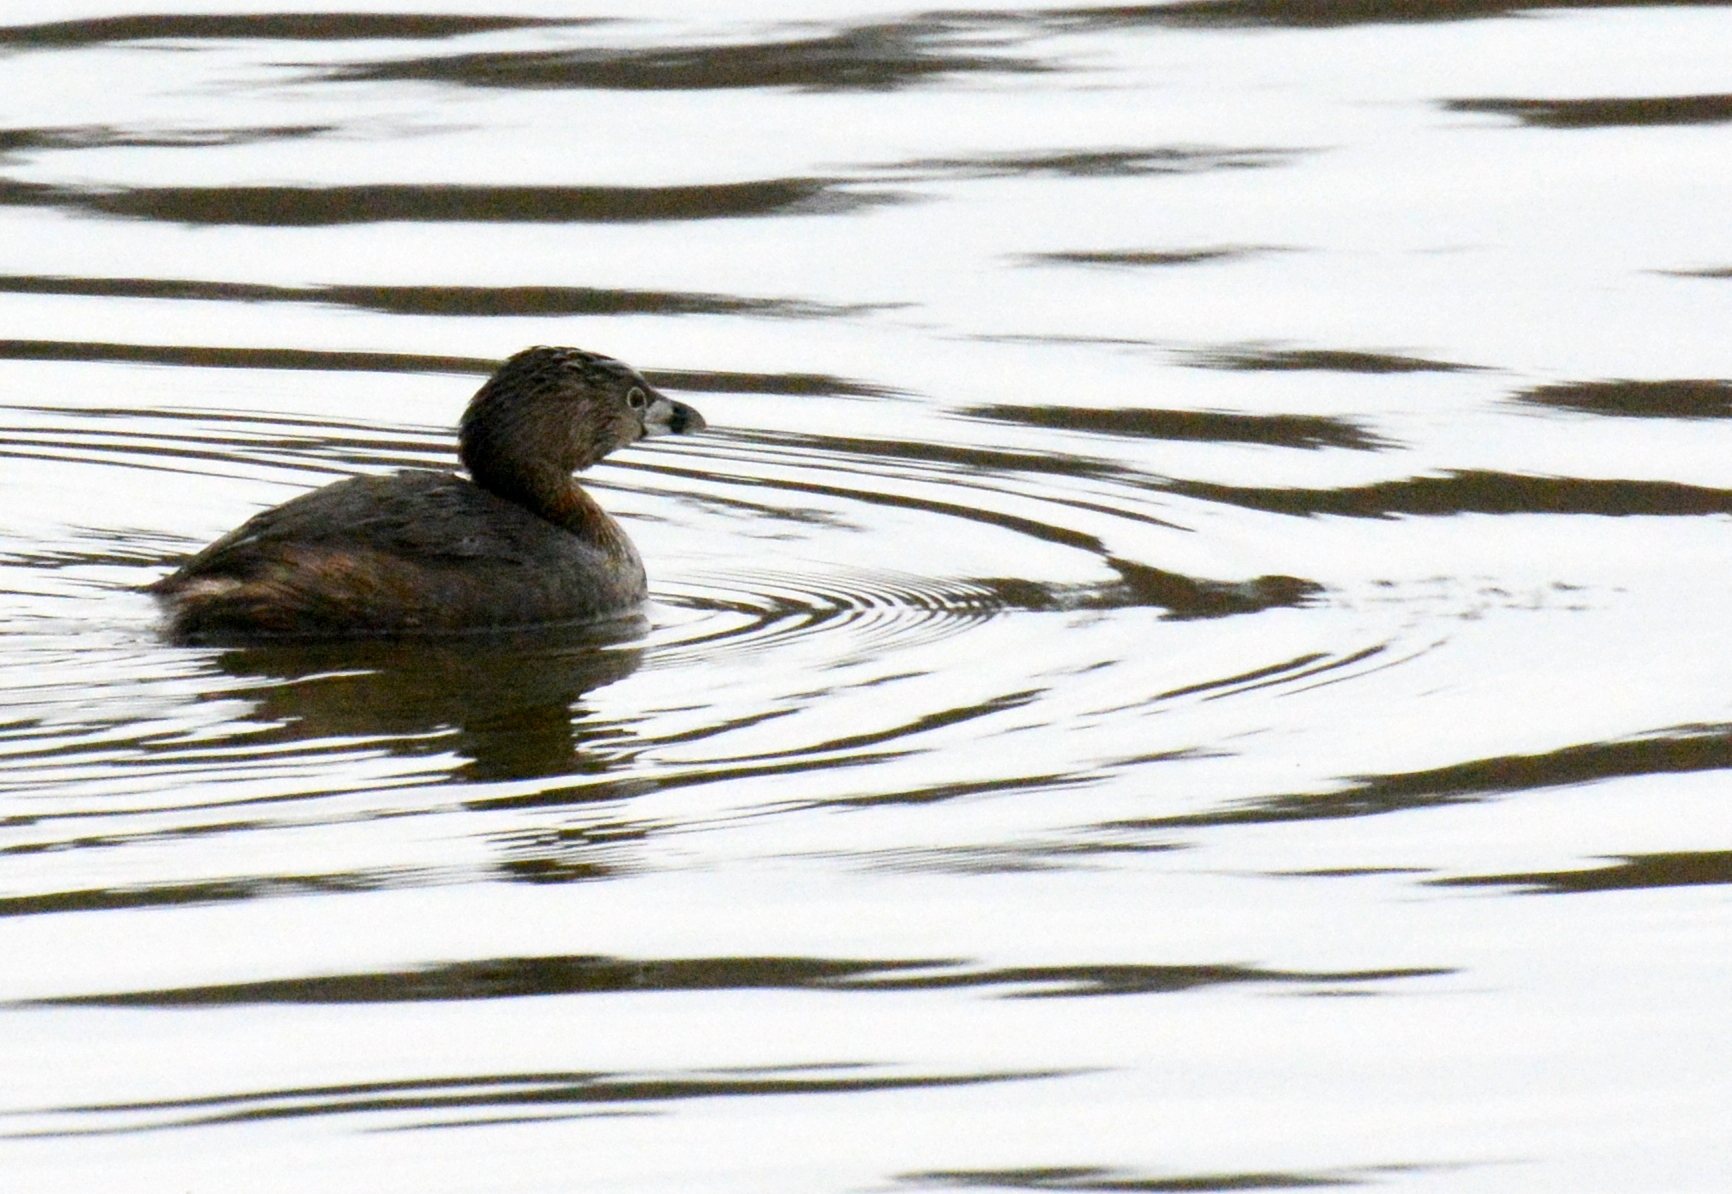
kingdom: Animalia
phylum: Chordata
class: Aves
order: Podicipediformes
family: Podicipedidae
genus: Podilymbus
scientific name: Podilymbus podiceps
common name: Pied-billed grebe
